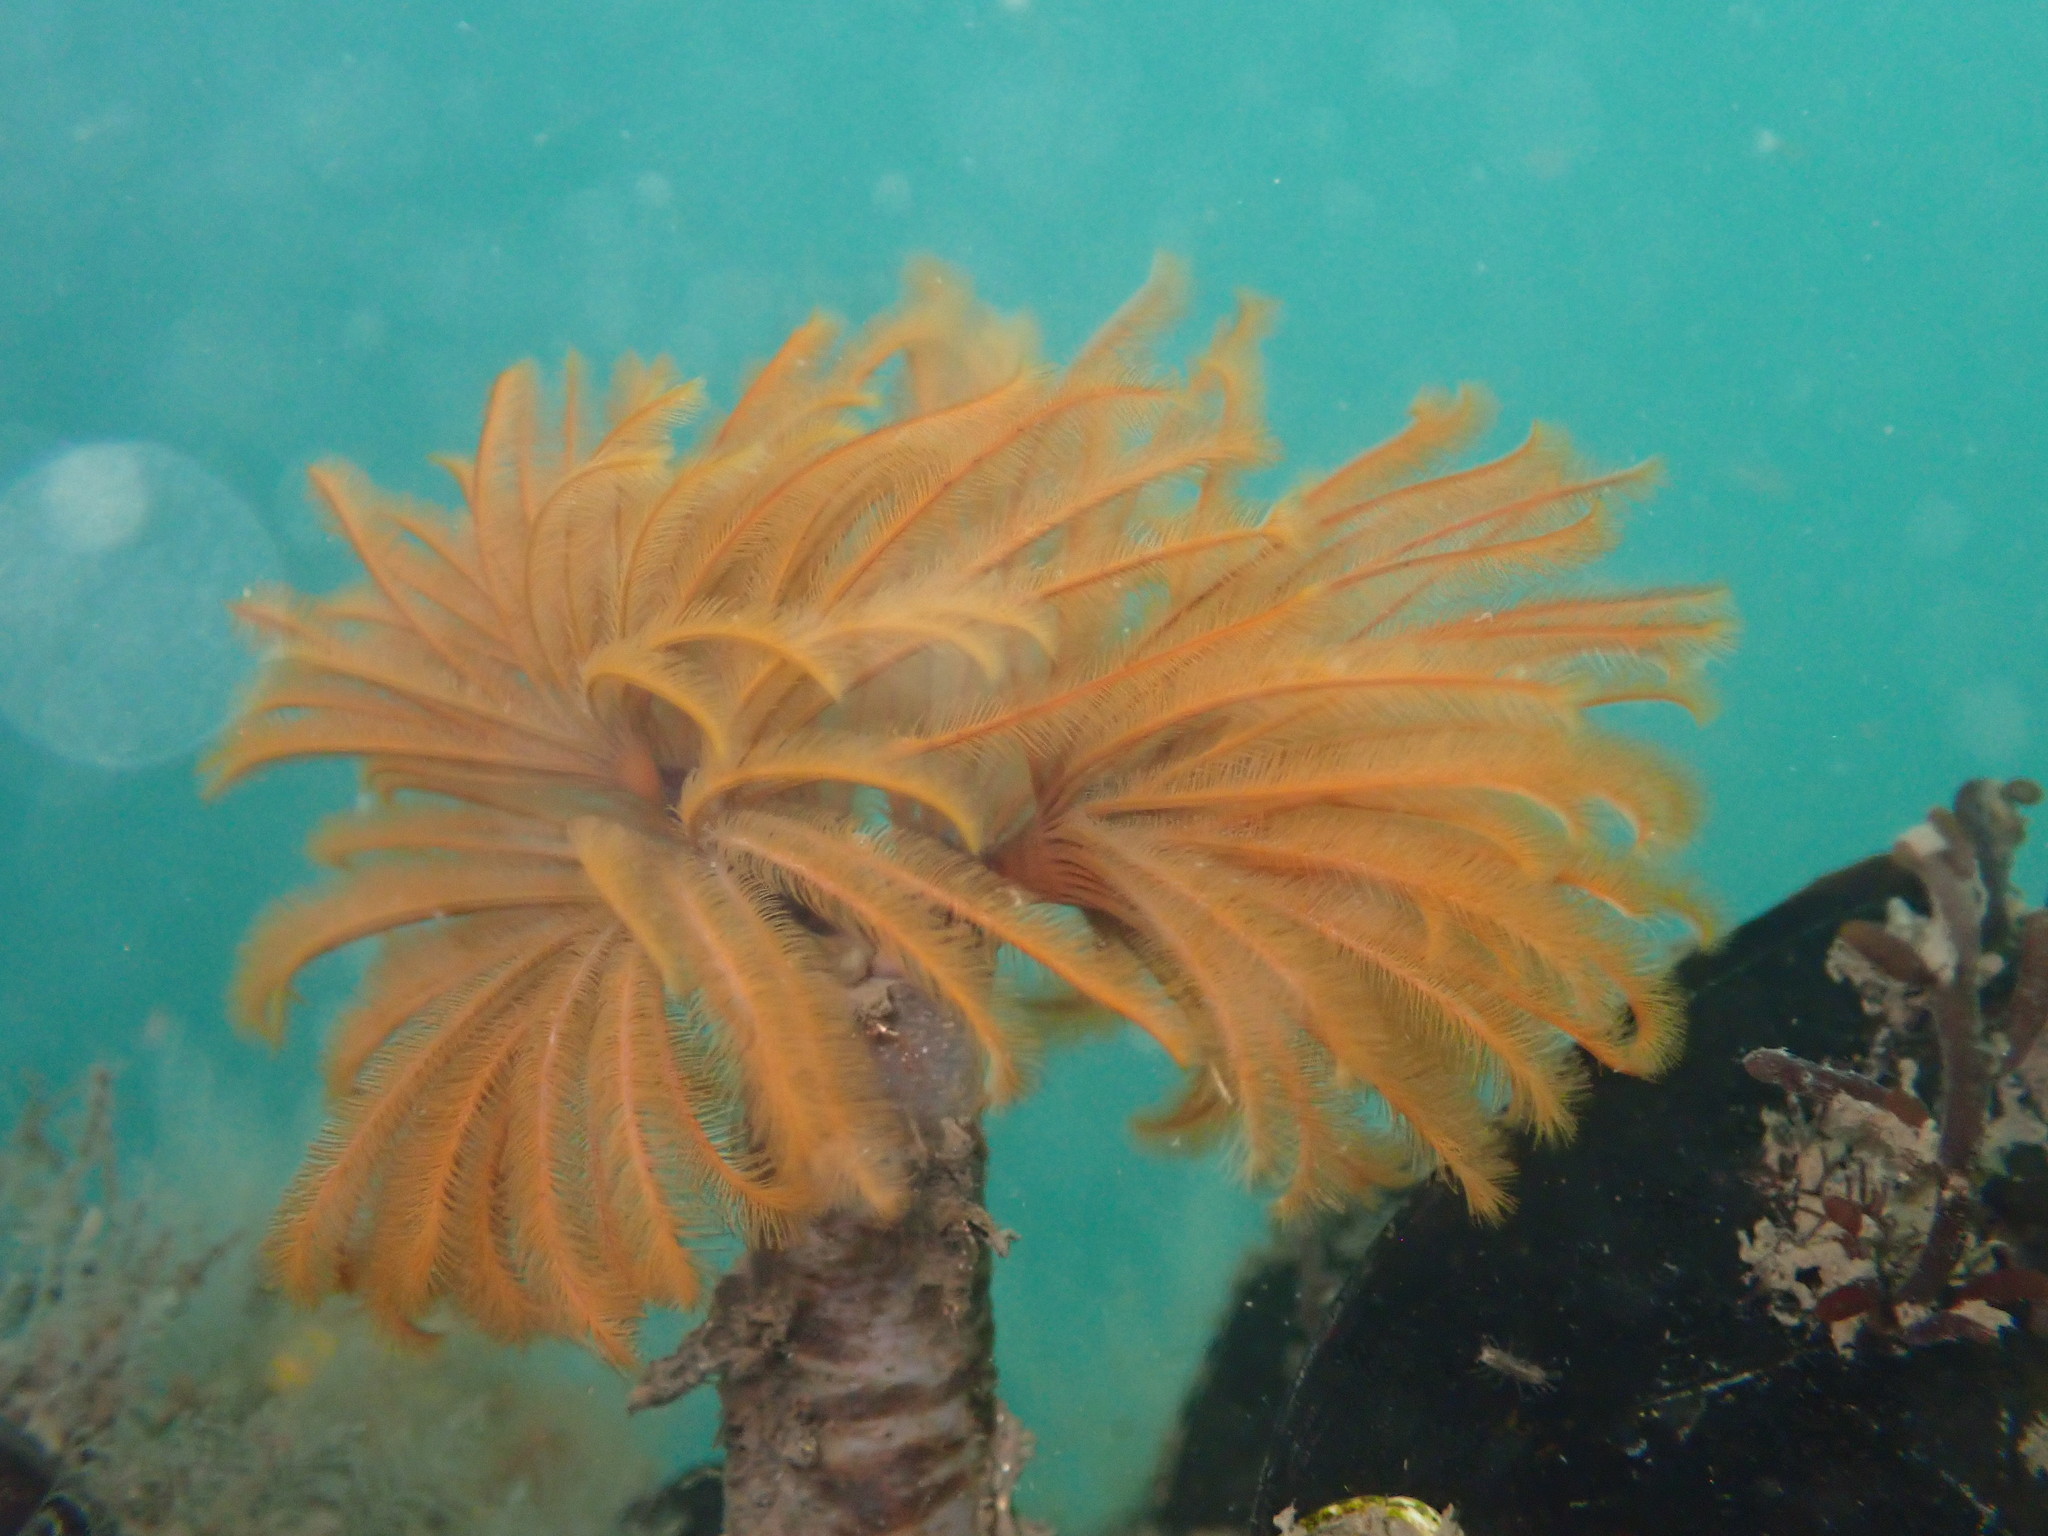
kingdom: Animalia
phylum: Annelida
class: Polychaeta
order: Sabellida
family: Sabellidae
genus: Eudistylia
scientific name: Eudistylia polymorpha
